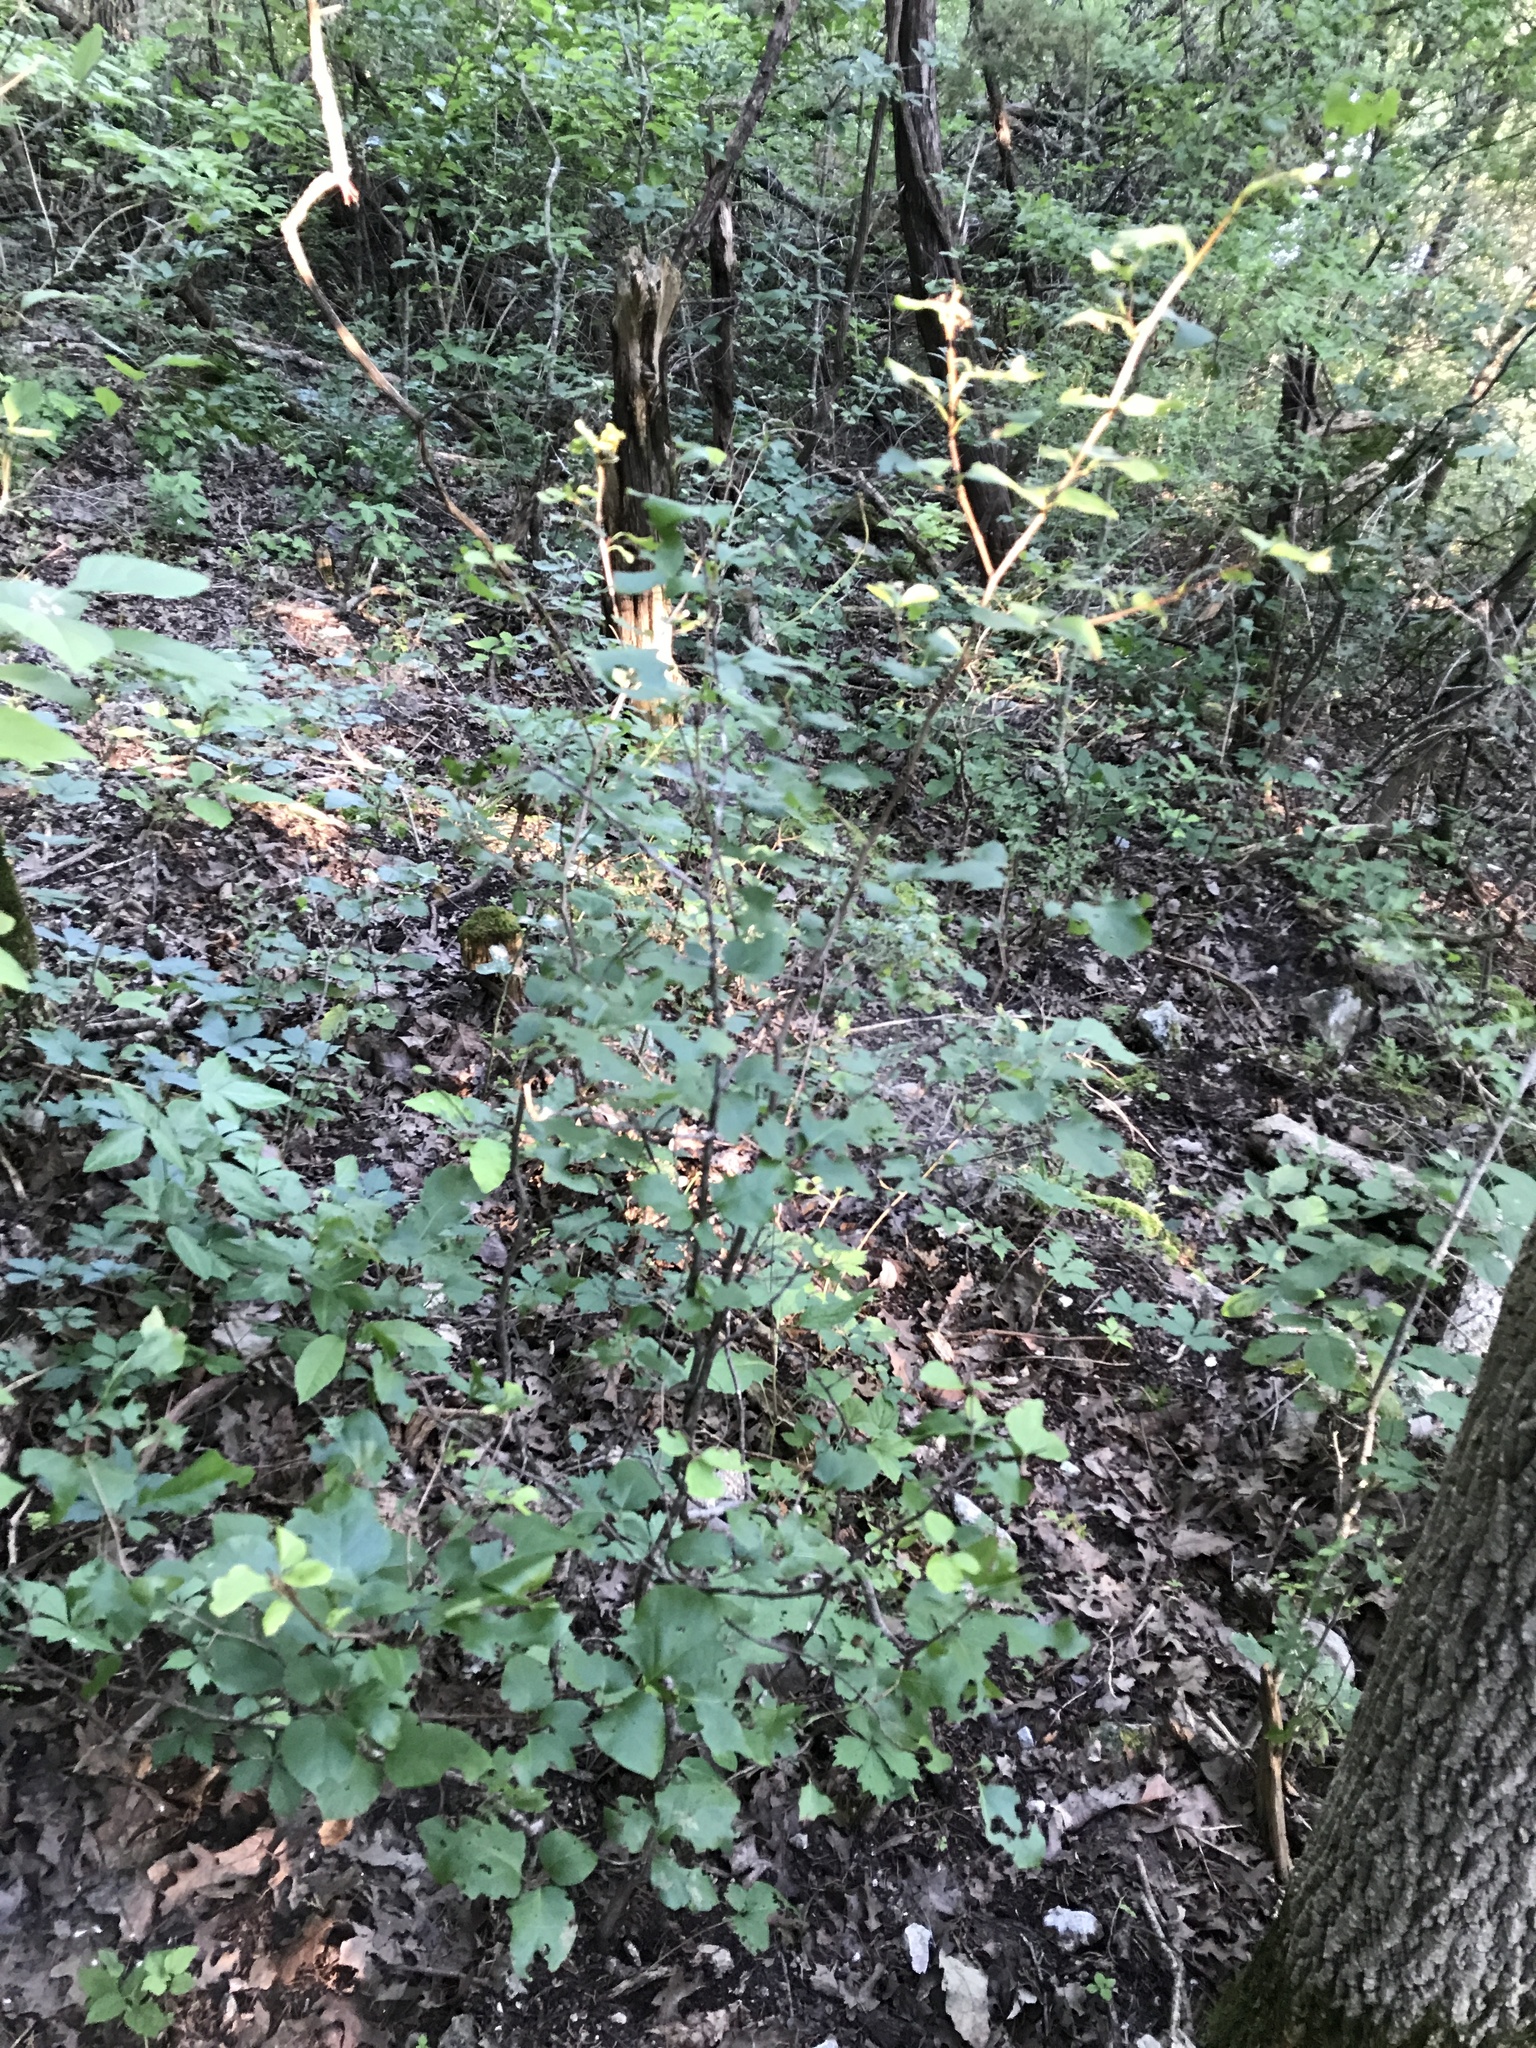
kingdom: Plantae
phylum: Tracheophyta
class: Magnoliopsida
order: Ericales
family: Styracaceae
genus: Styrax
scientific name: Styrax platanifolius
